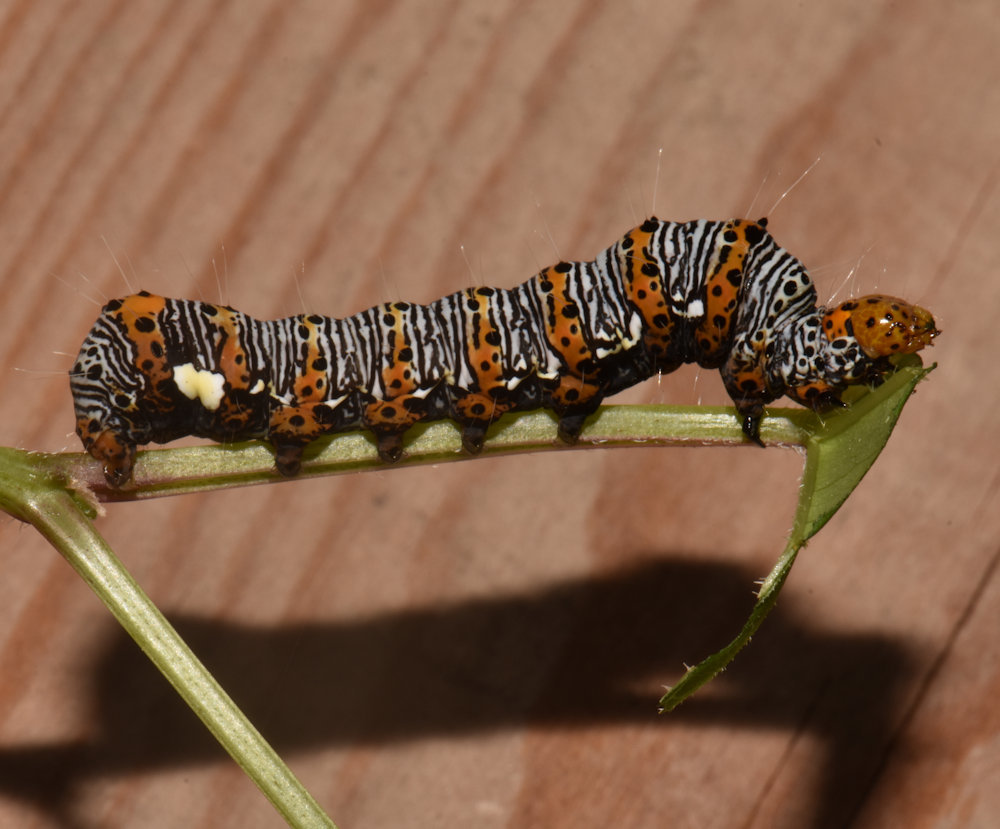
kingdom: Animalia
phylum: Arthropoda
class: Insecta
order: Lepidoptera
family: Noctuidae
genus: Alypia
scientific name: Alypia octomaculata
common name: Eight-spotted forester
